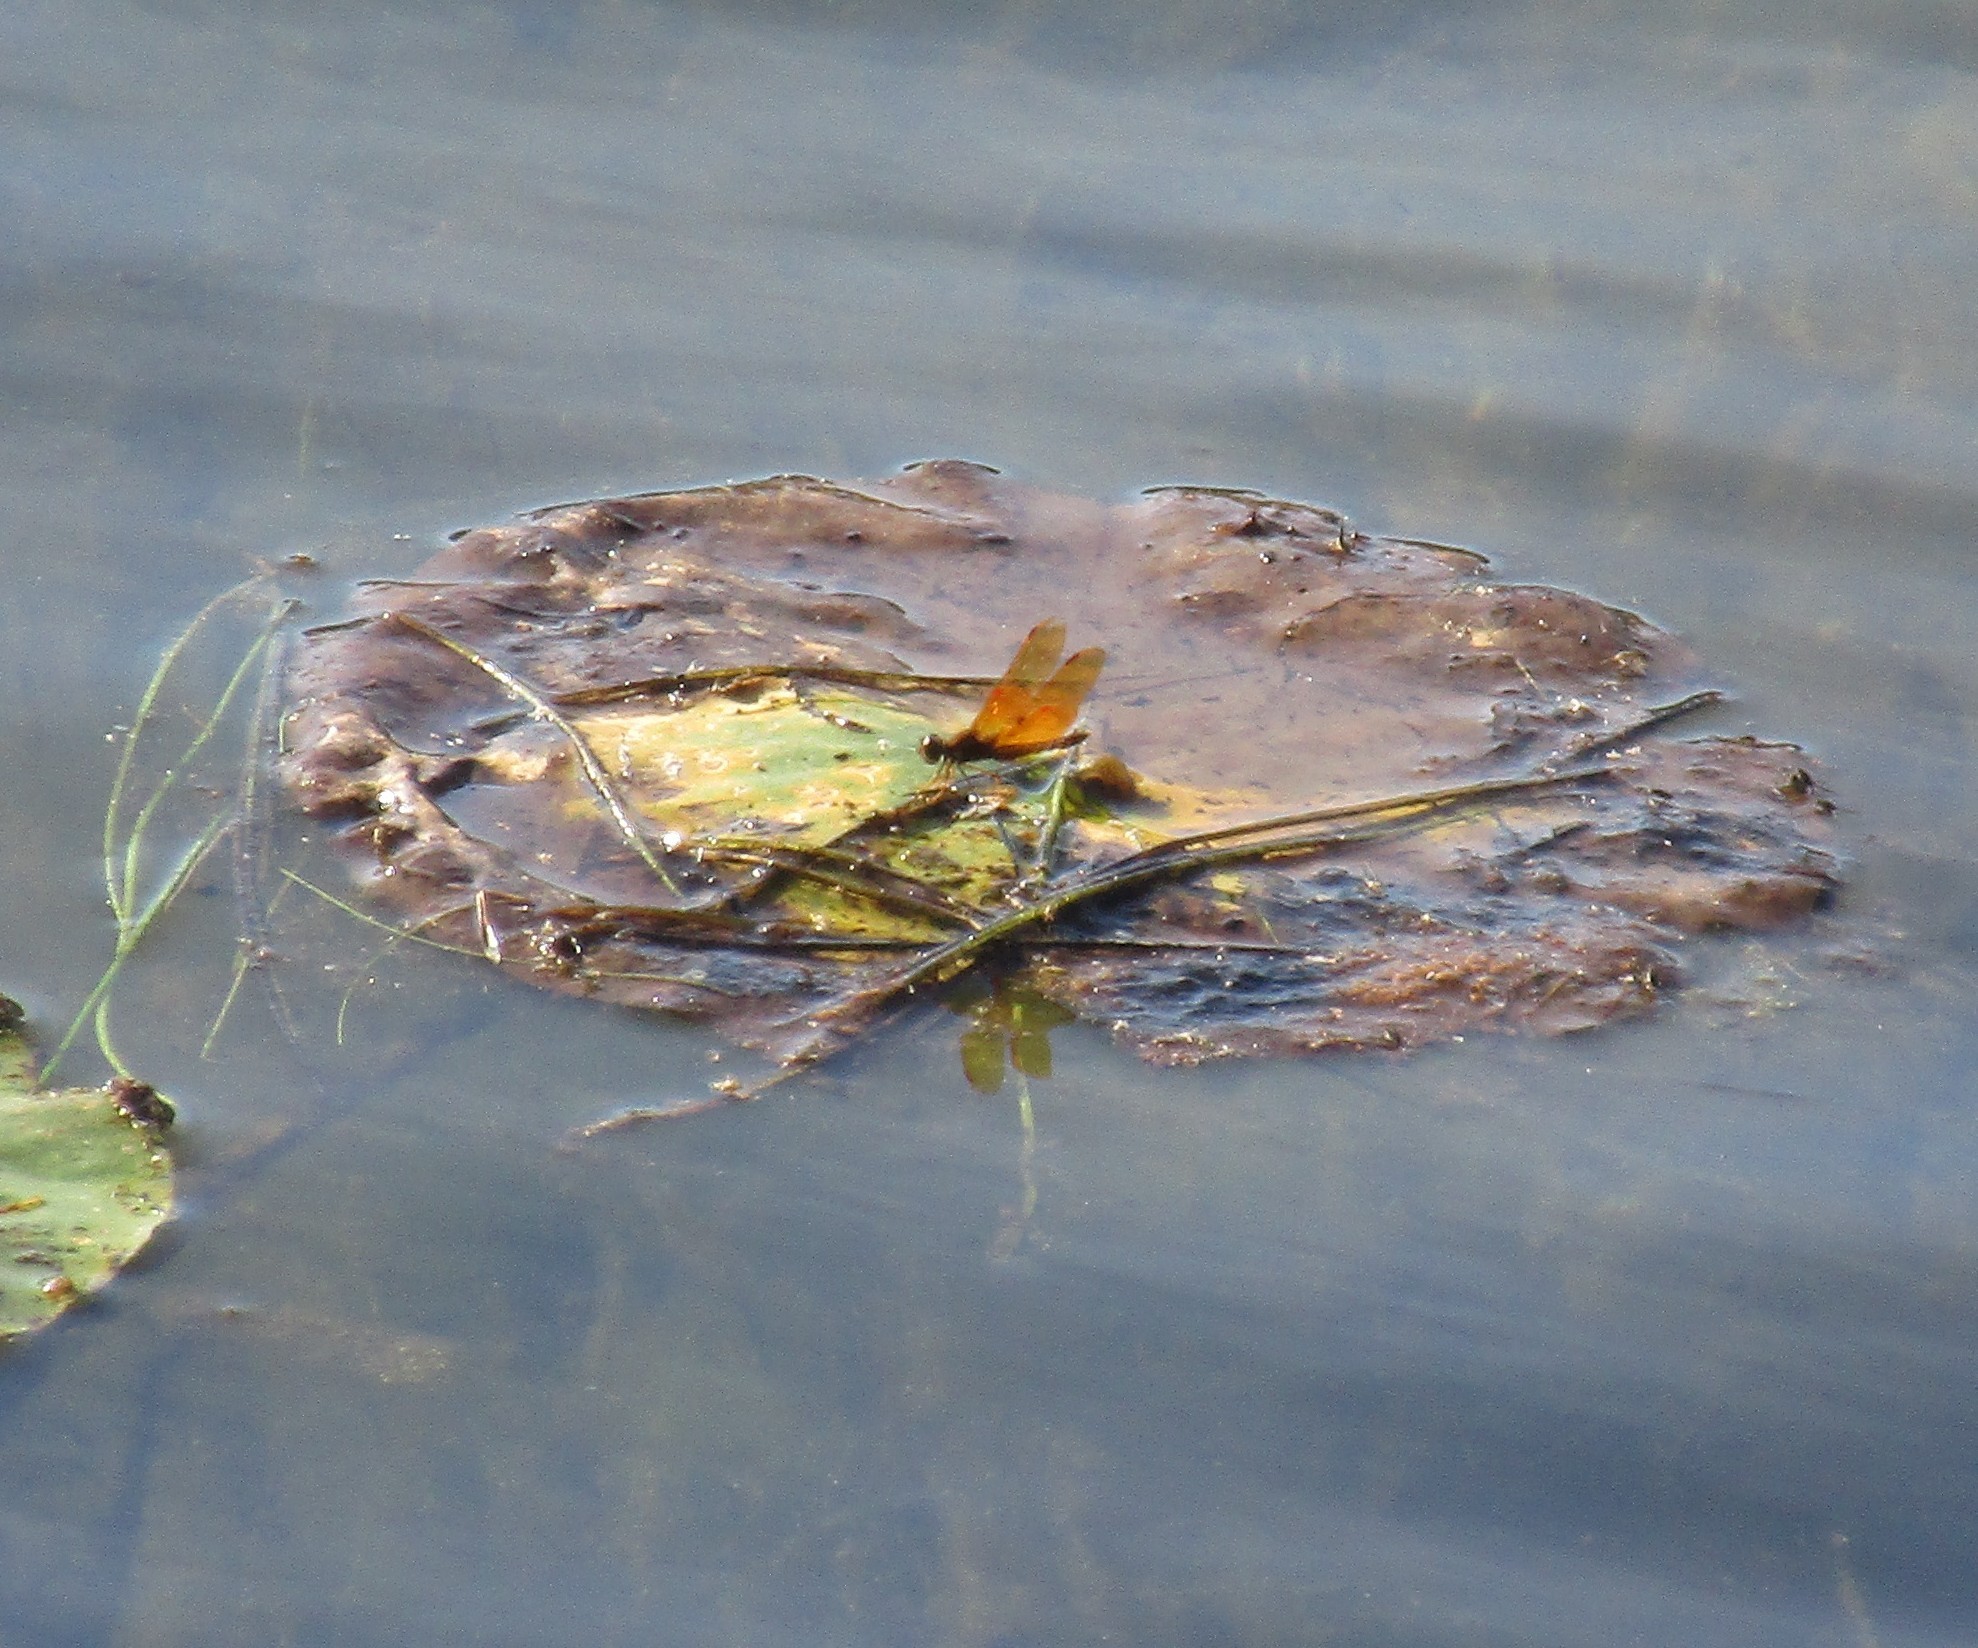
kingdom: Animalia
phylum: Arthropoda
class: Insecta
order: Odonata
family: Libellulidae
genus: Perithemis
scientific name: Perithemis tenera
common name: Eastern amberwing
